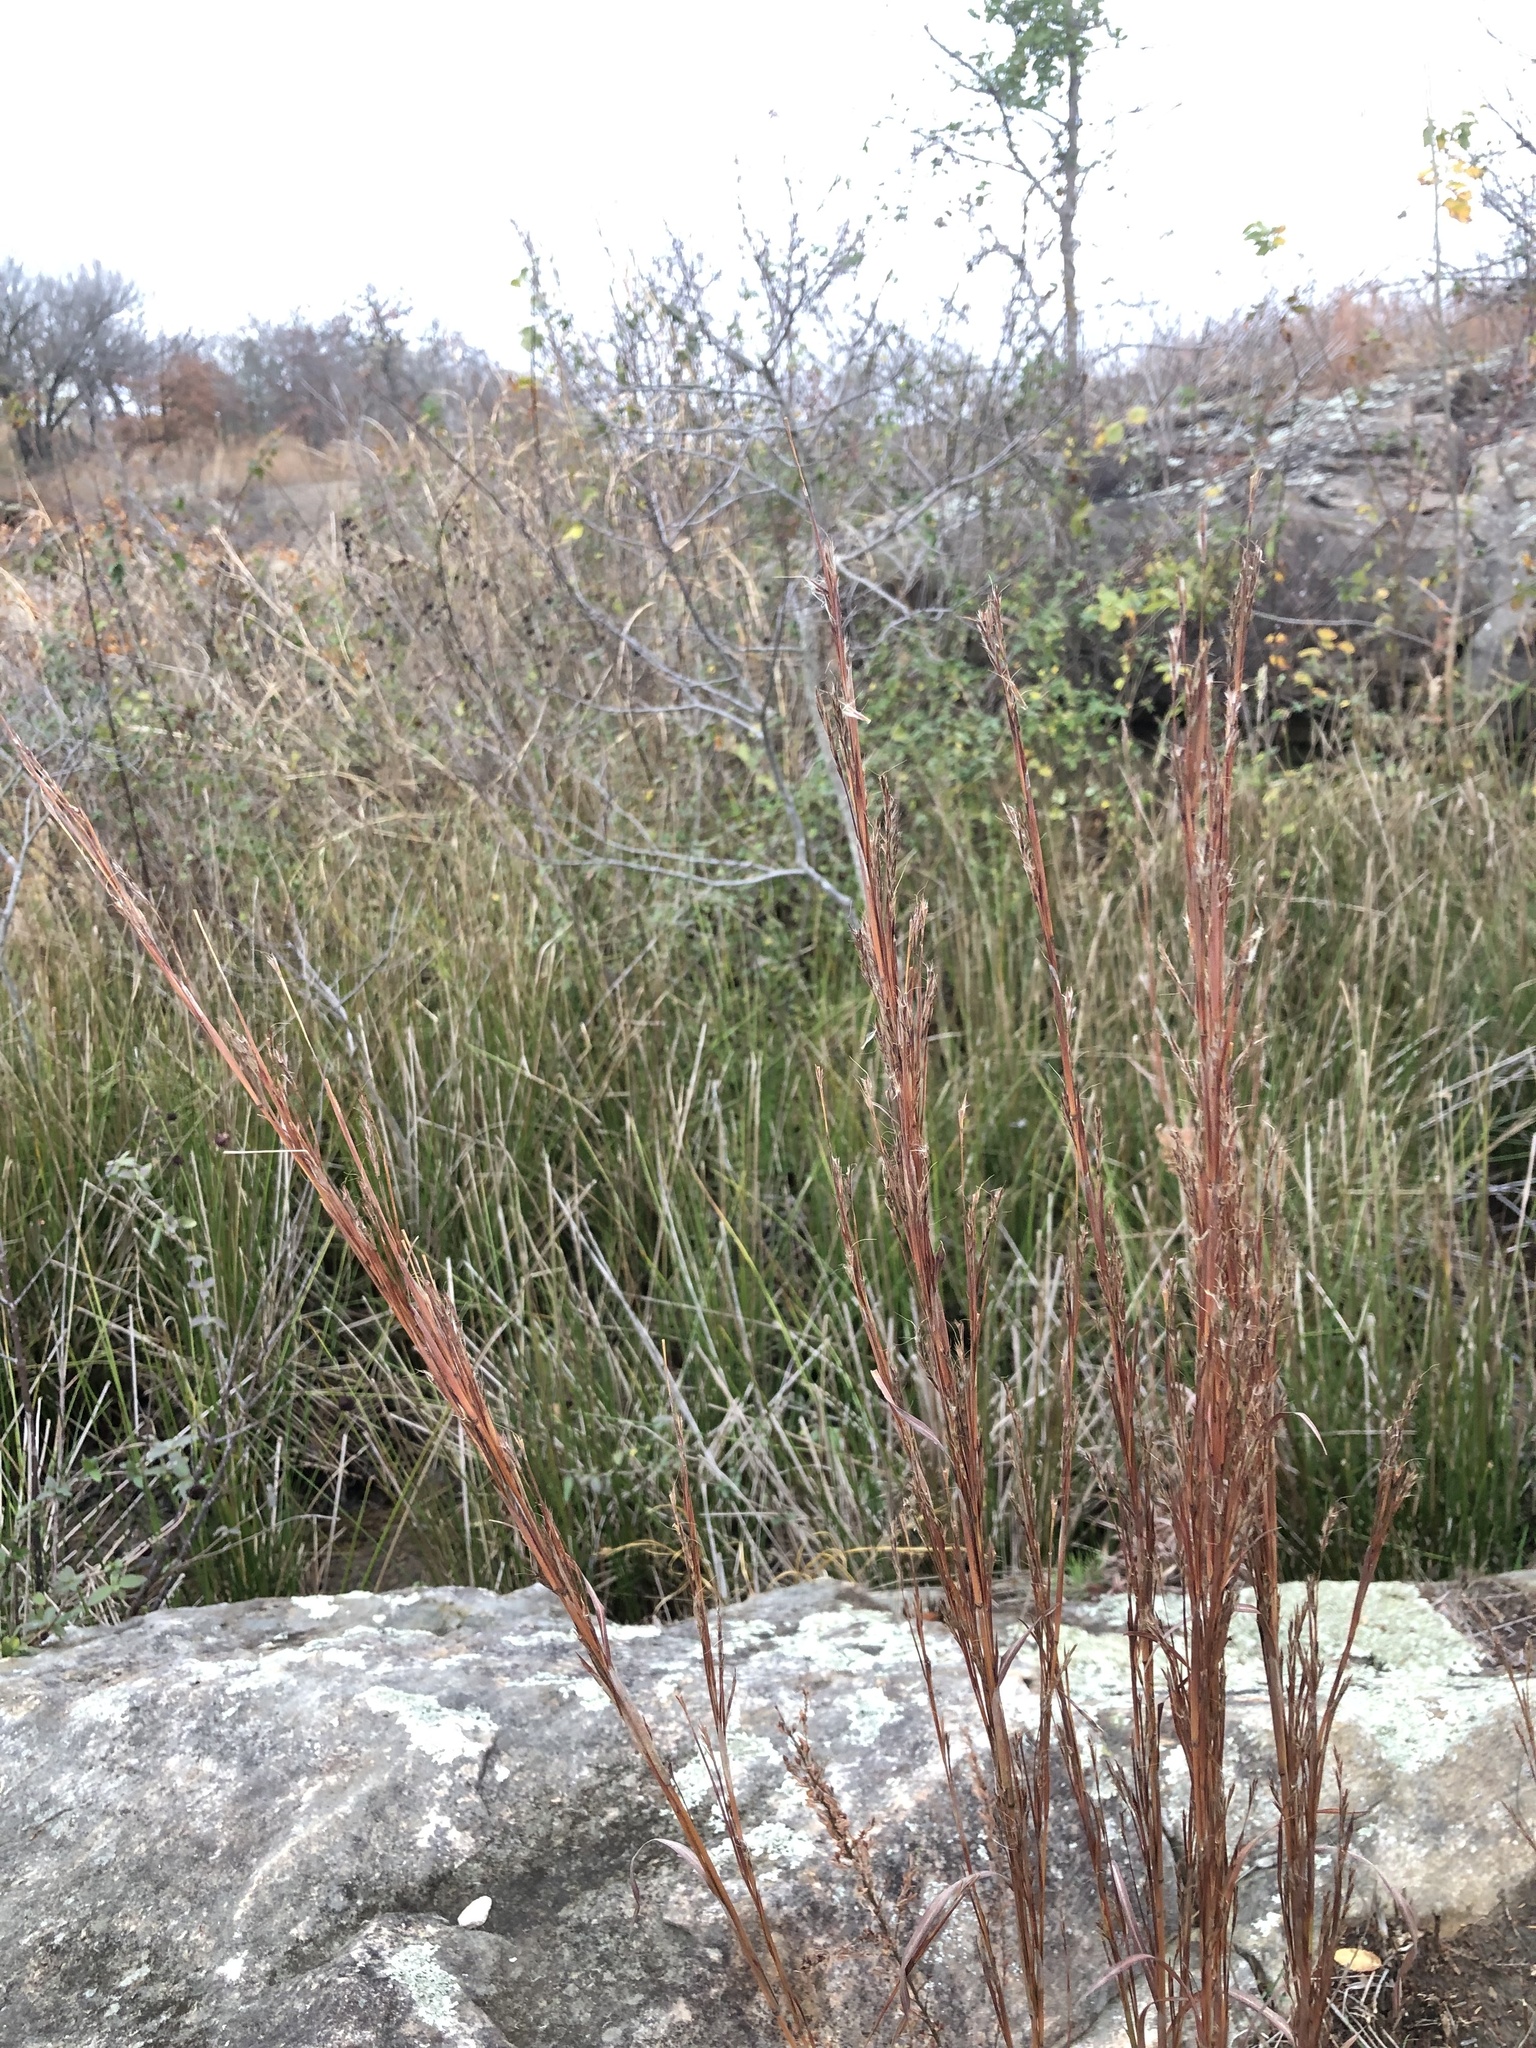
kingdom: Plantae
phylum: Tracheophyta
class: Liliopsida
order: Poales
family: Poaceae
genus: Schizachyrium
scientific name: Schizachyrium scoparium
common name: Little bluestem
